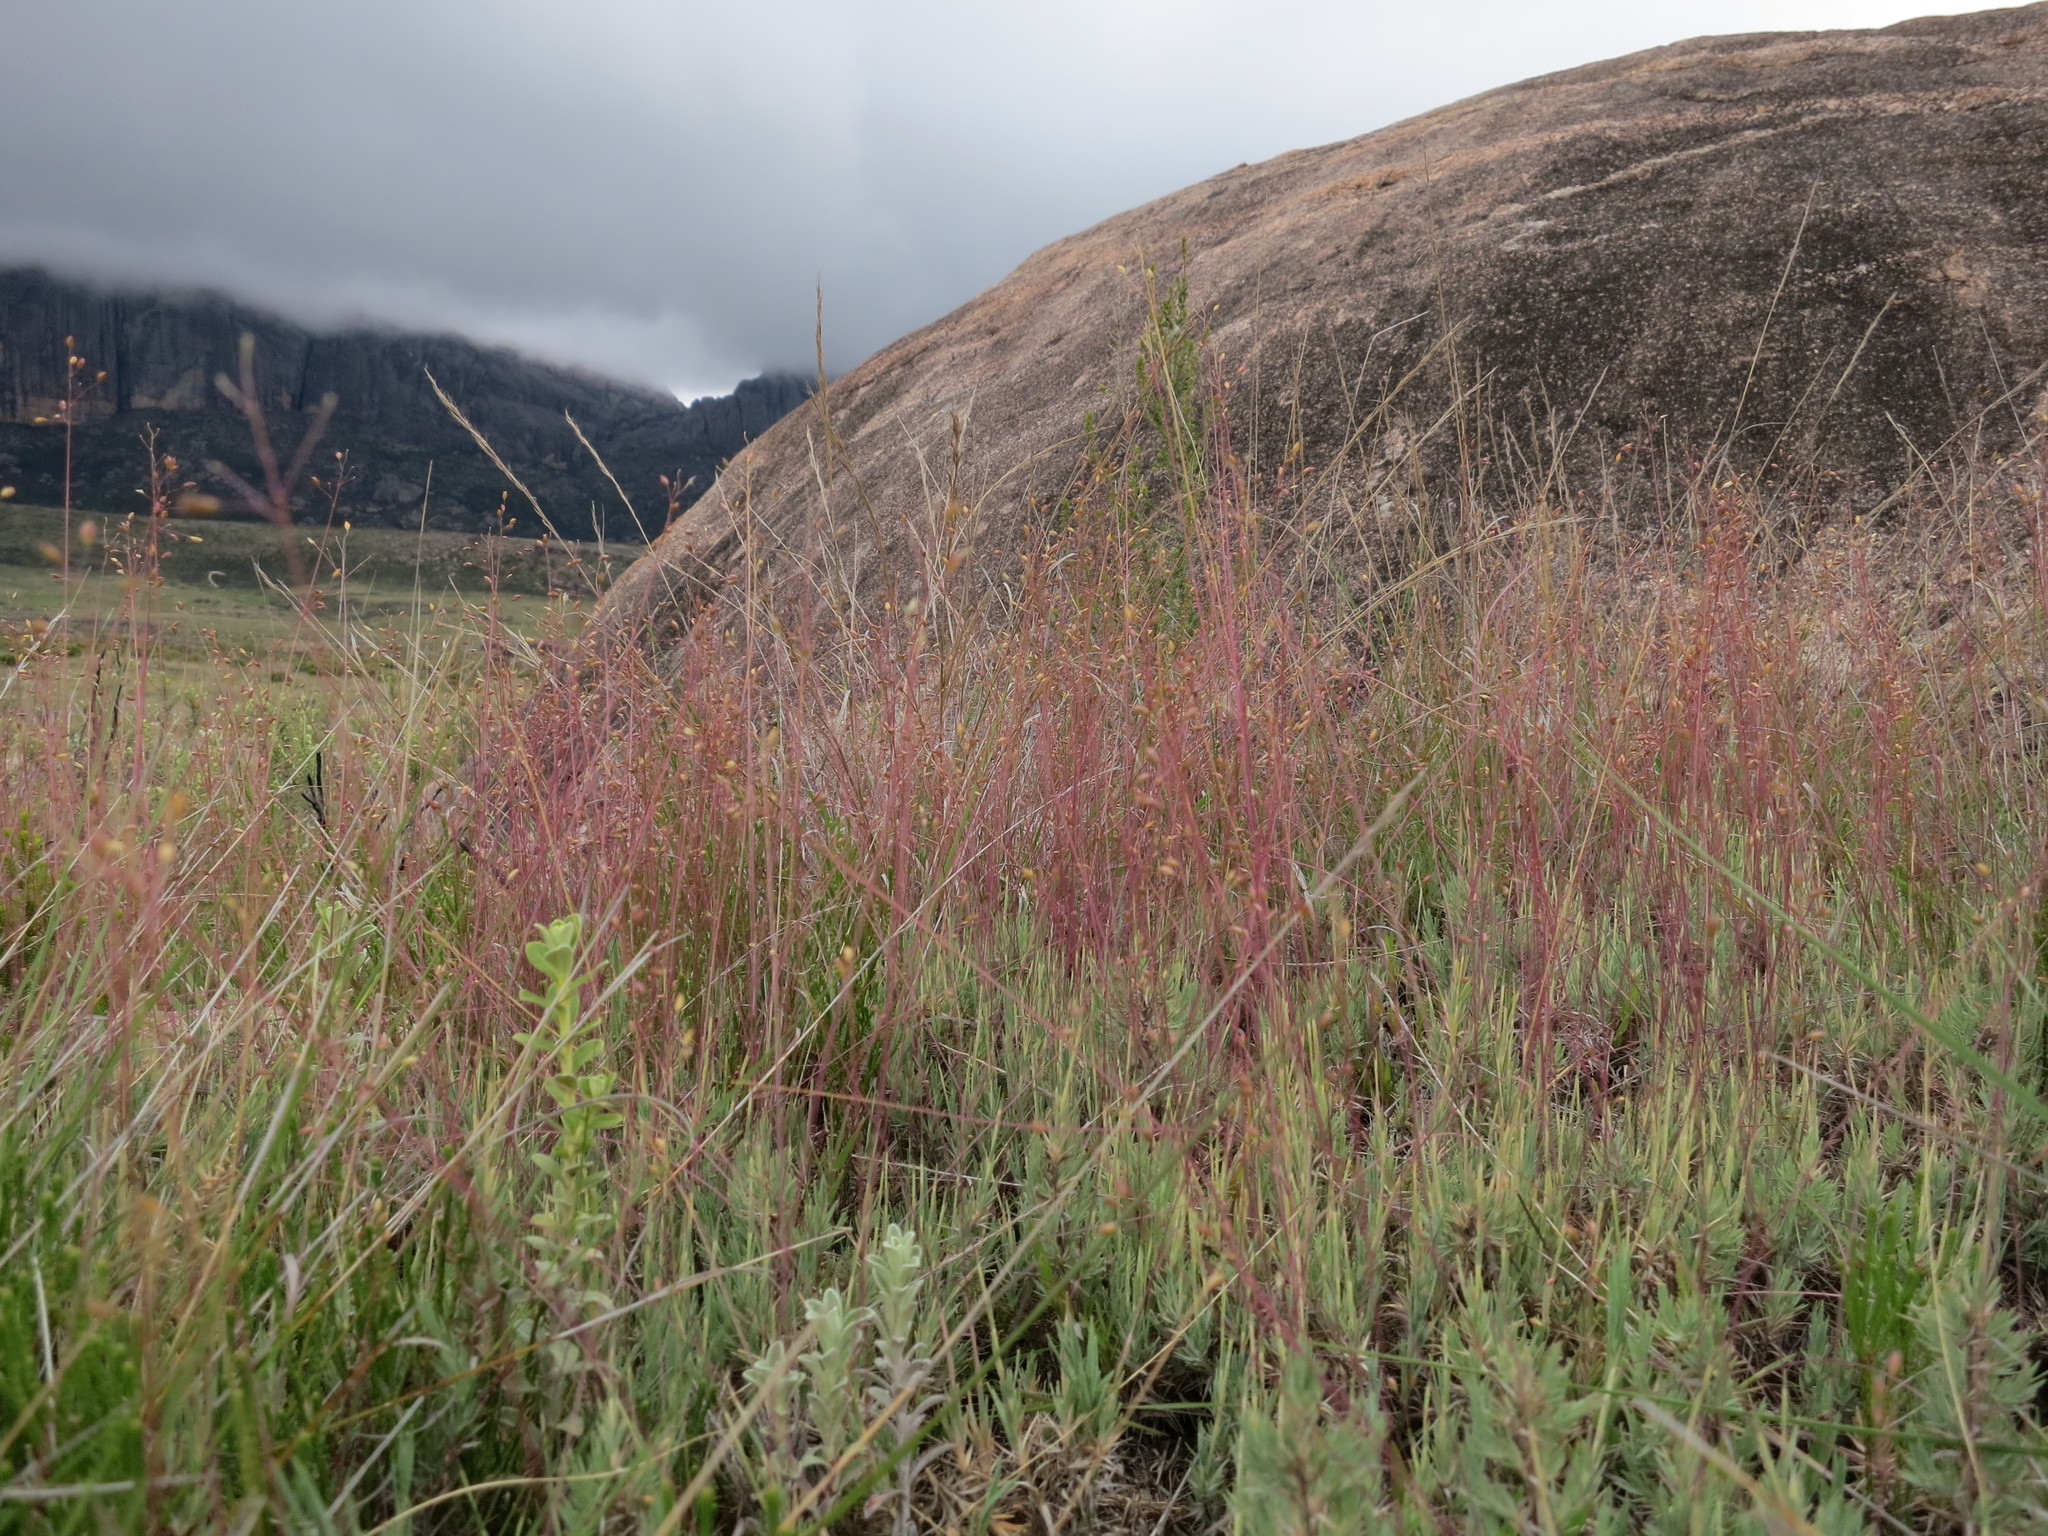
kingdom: Plantae
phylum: Tracheophyta
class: Liliopsida
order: Poales
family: Poaceae
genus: Panicum
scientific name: Panicum spergulifolium
